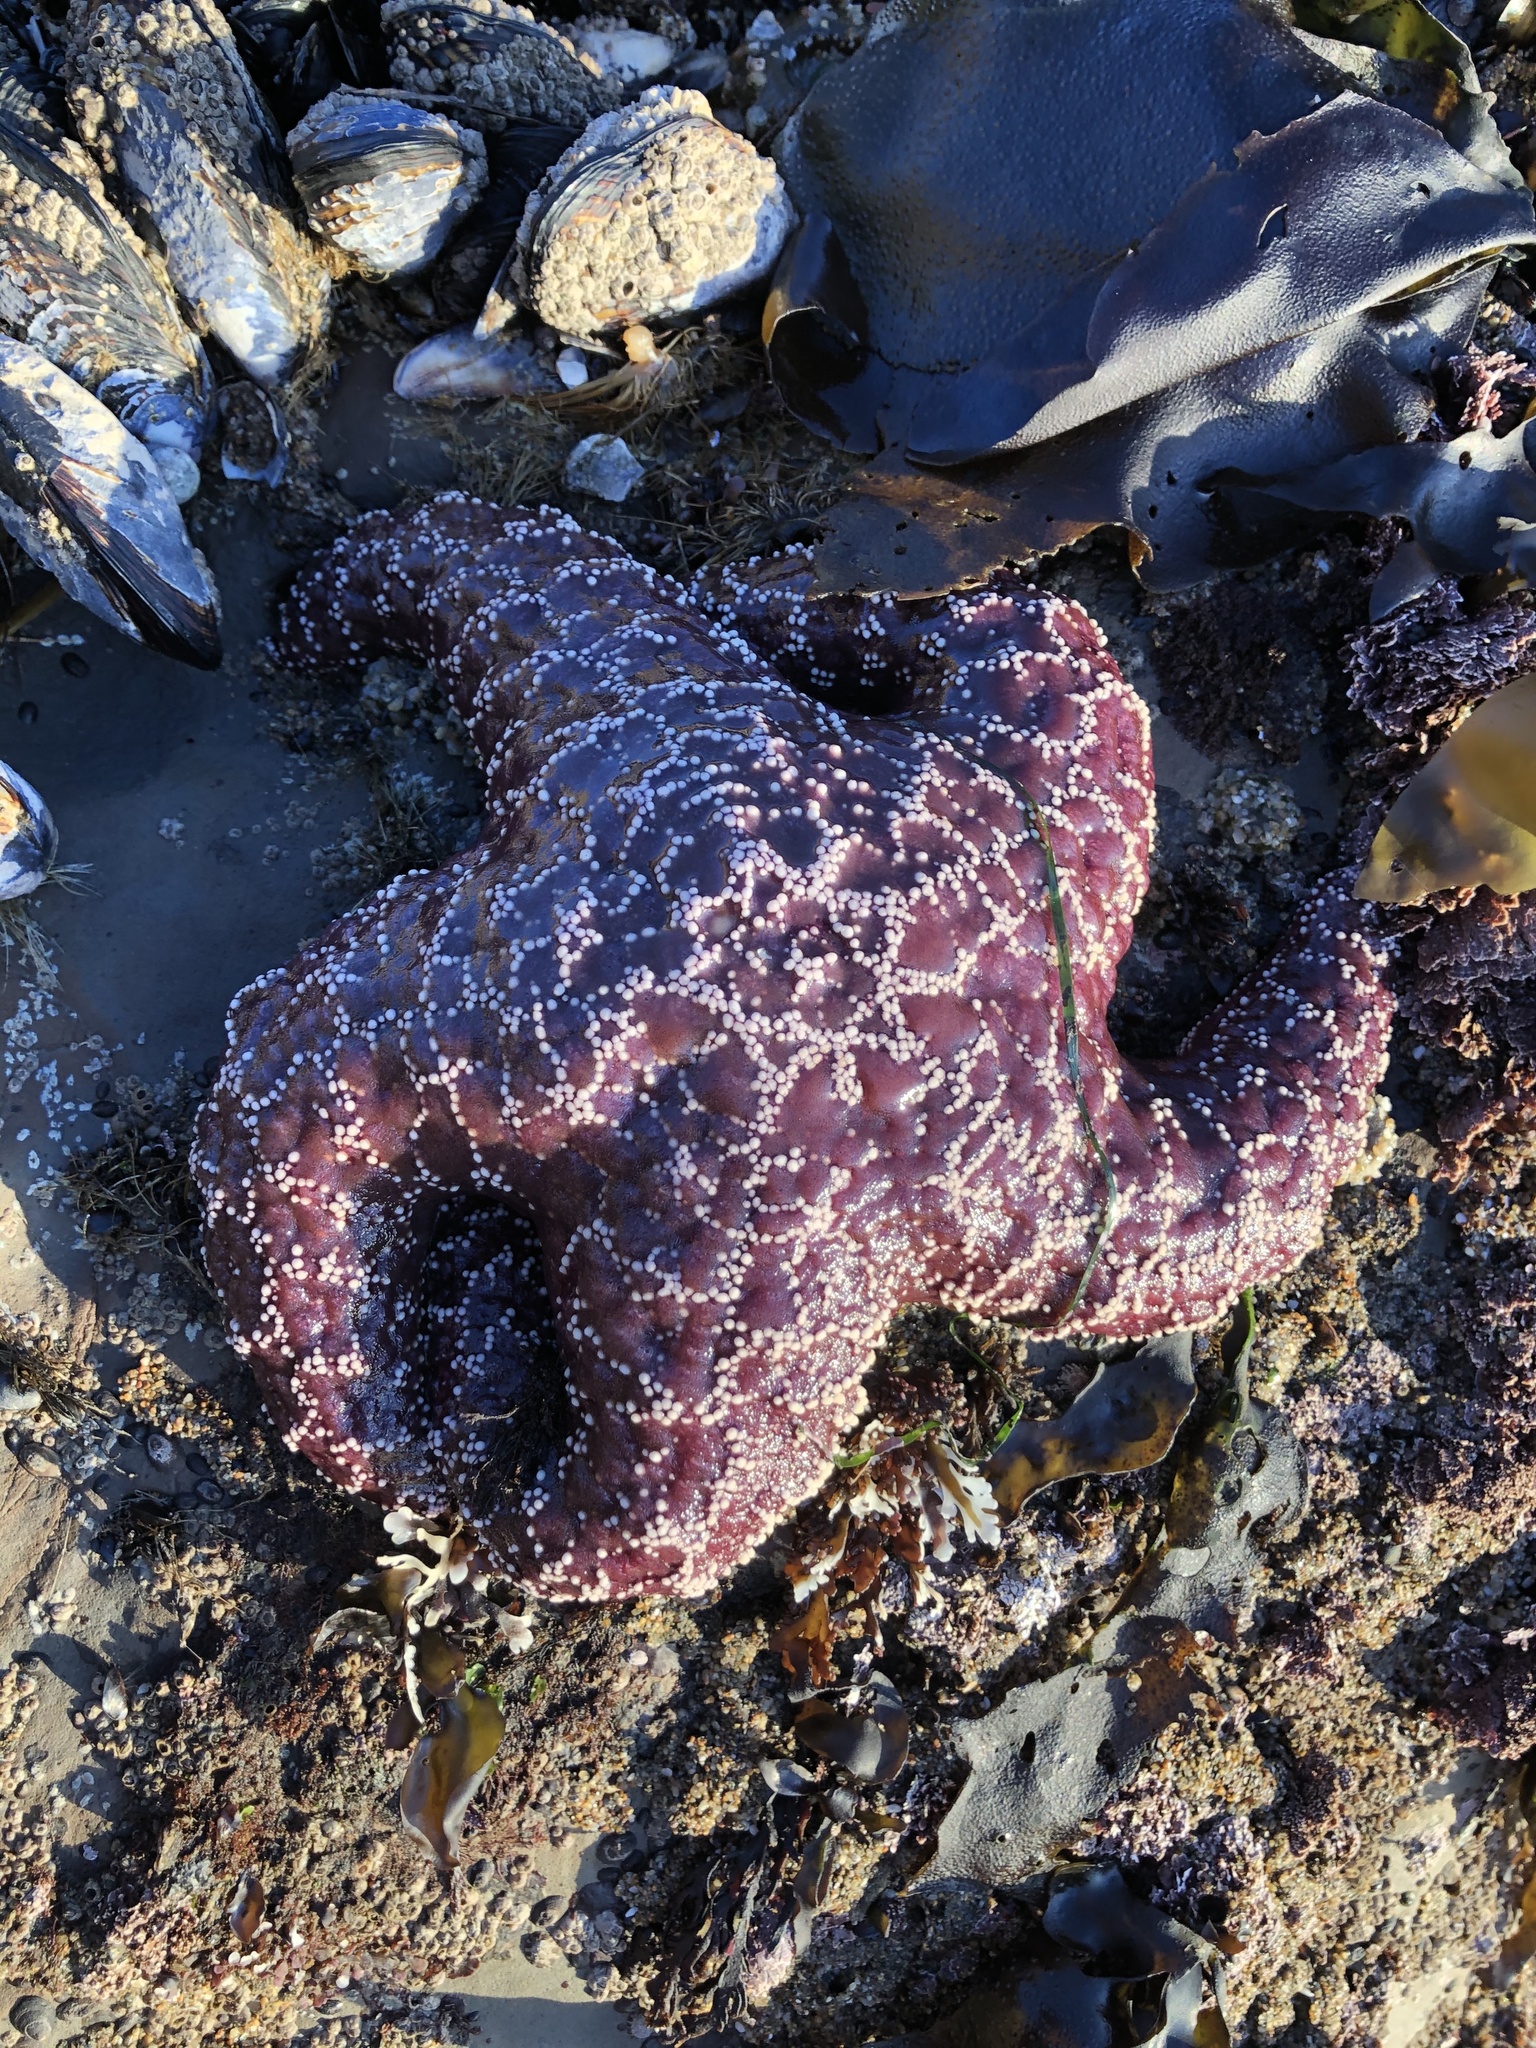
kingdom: Animalia
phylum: Echinodermata
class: Asteroidea
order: Forcipulatida
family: Asteriidae
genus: Pisaster
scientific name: Pisaster ochraceus
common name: Ochre stars
